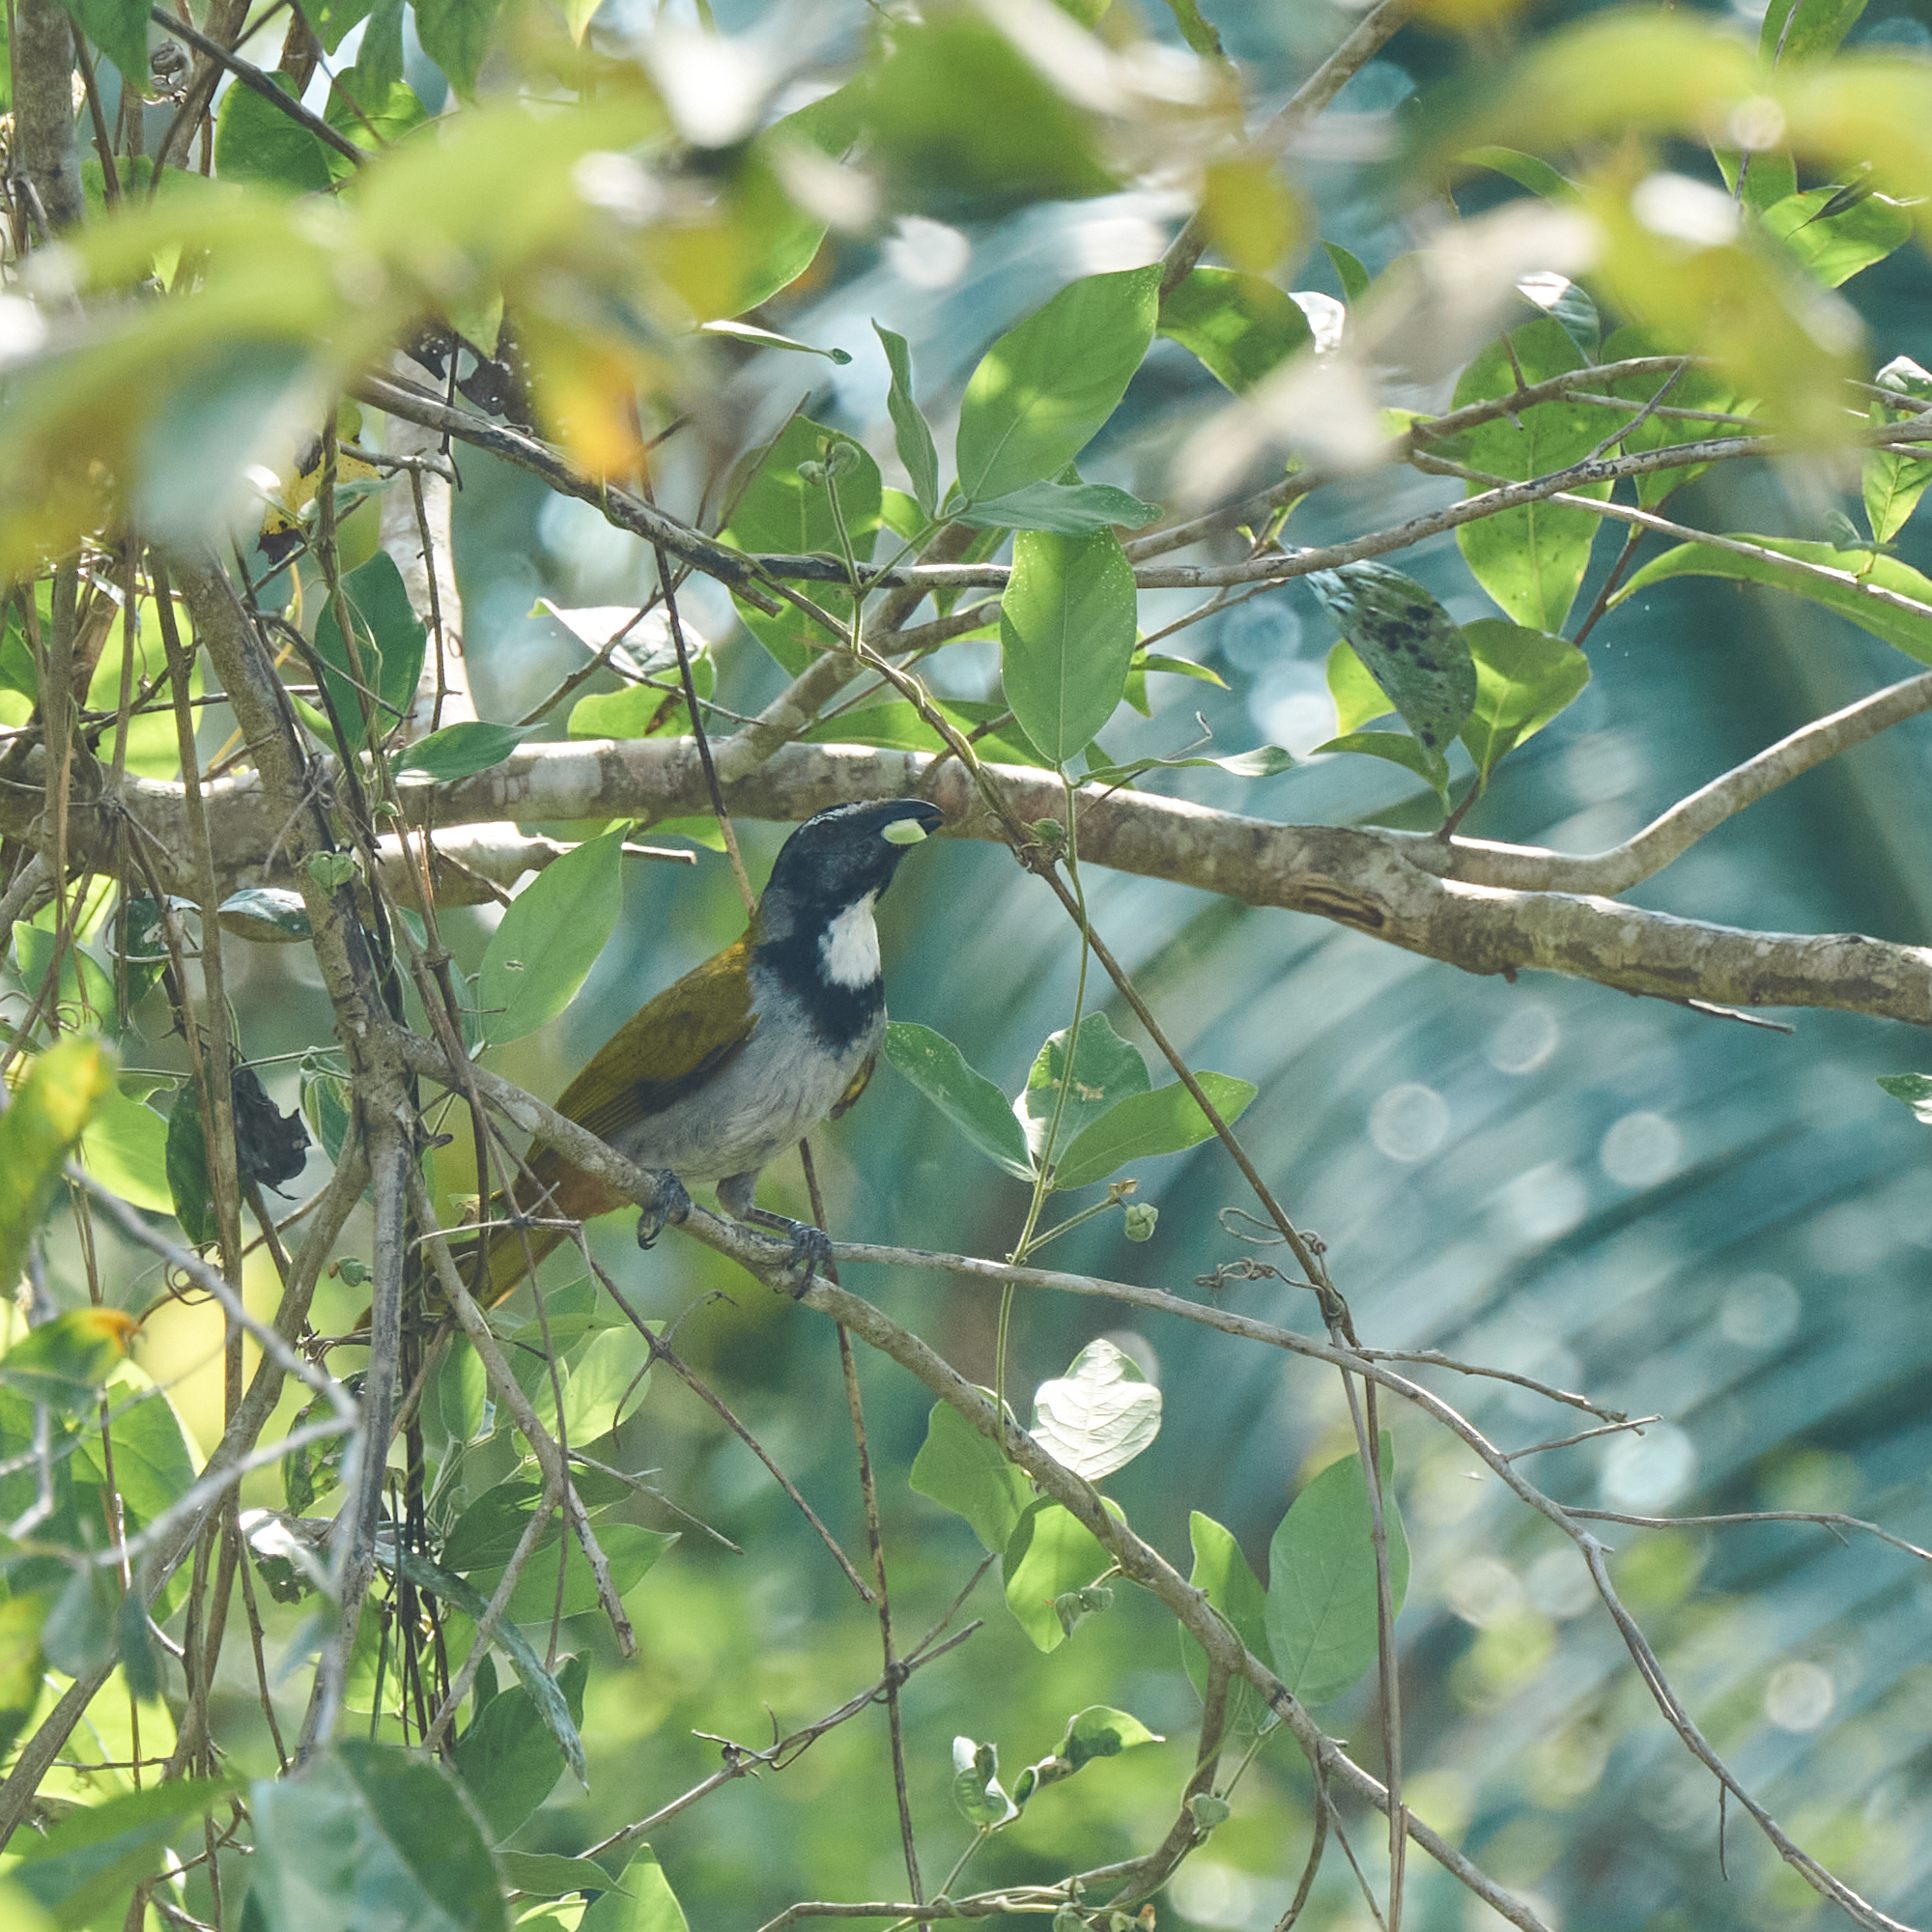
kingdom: Animalia
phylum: Chordata
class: Aves
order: Passeriformes
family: Thraupidae
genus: Saltator
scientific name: Saltator atriceps
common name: Black-headed saltator
